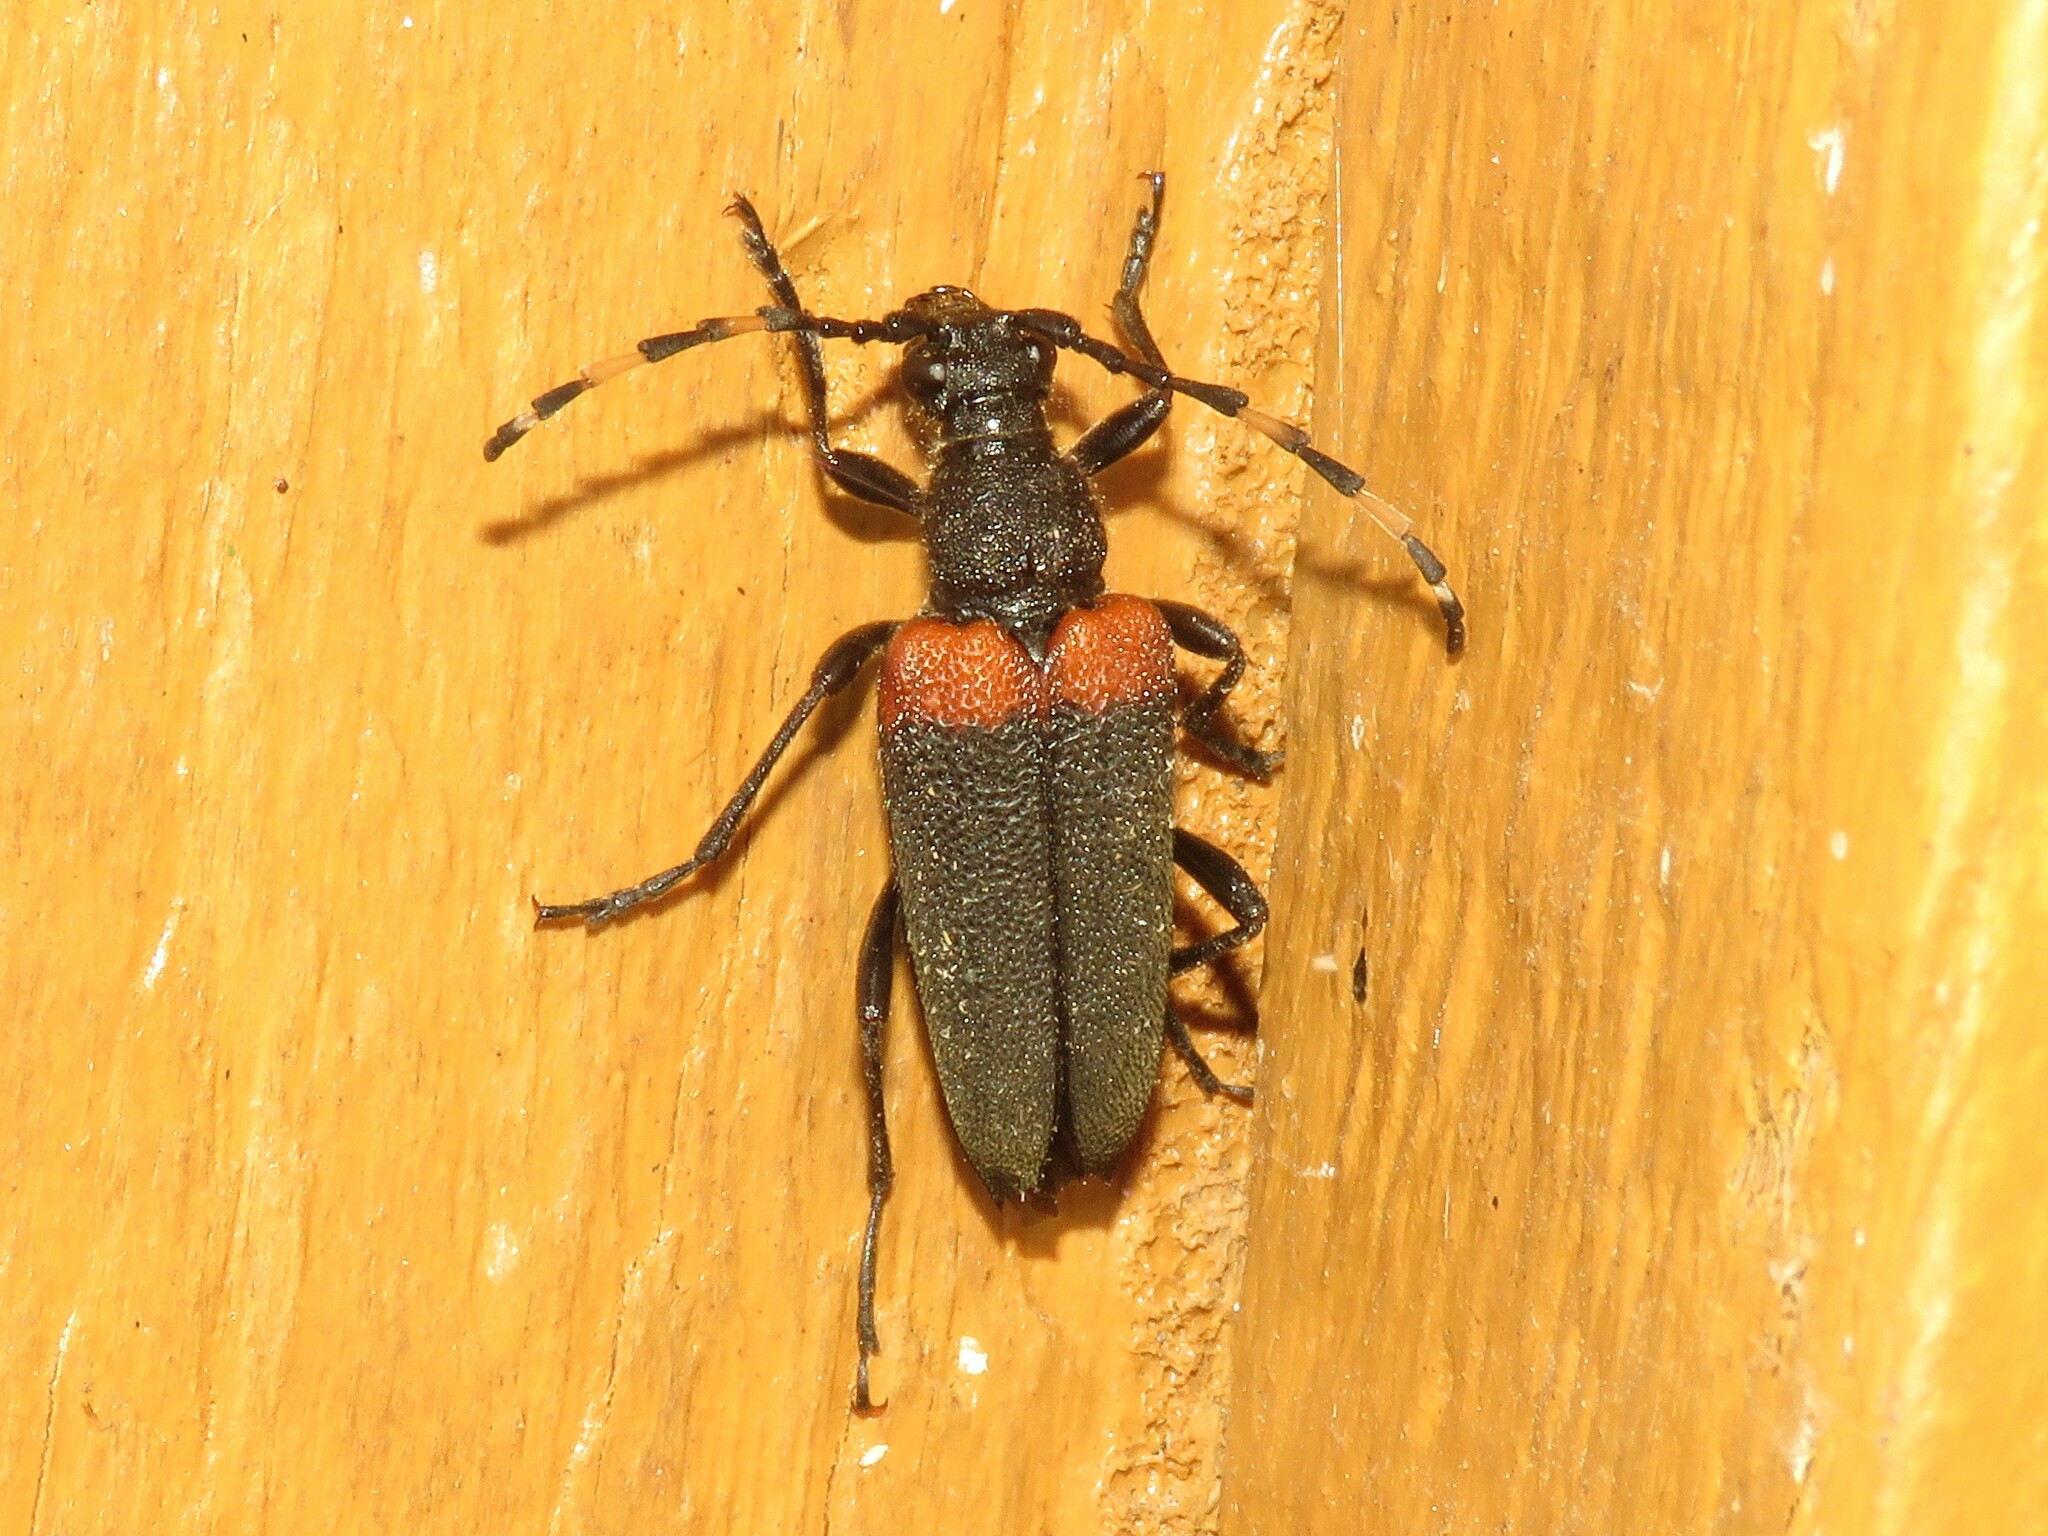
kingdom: Animalia
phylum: Arthropoda
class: Insecta
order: Coleoptera
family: Cerambycidae
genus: Stictoleptura
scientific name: Stictoleptura canadensis
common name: Red-shouldered pine borer
